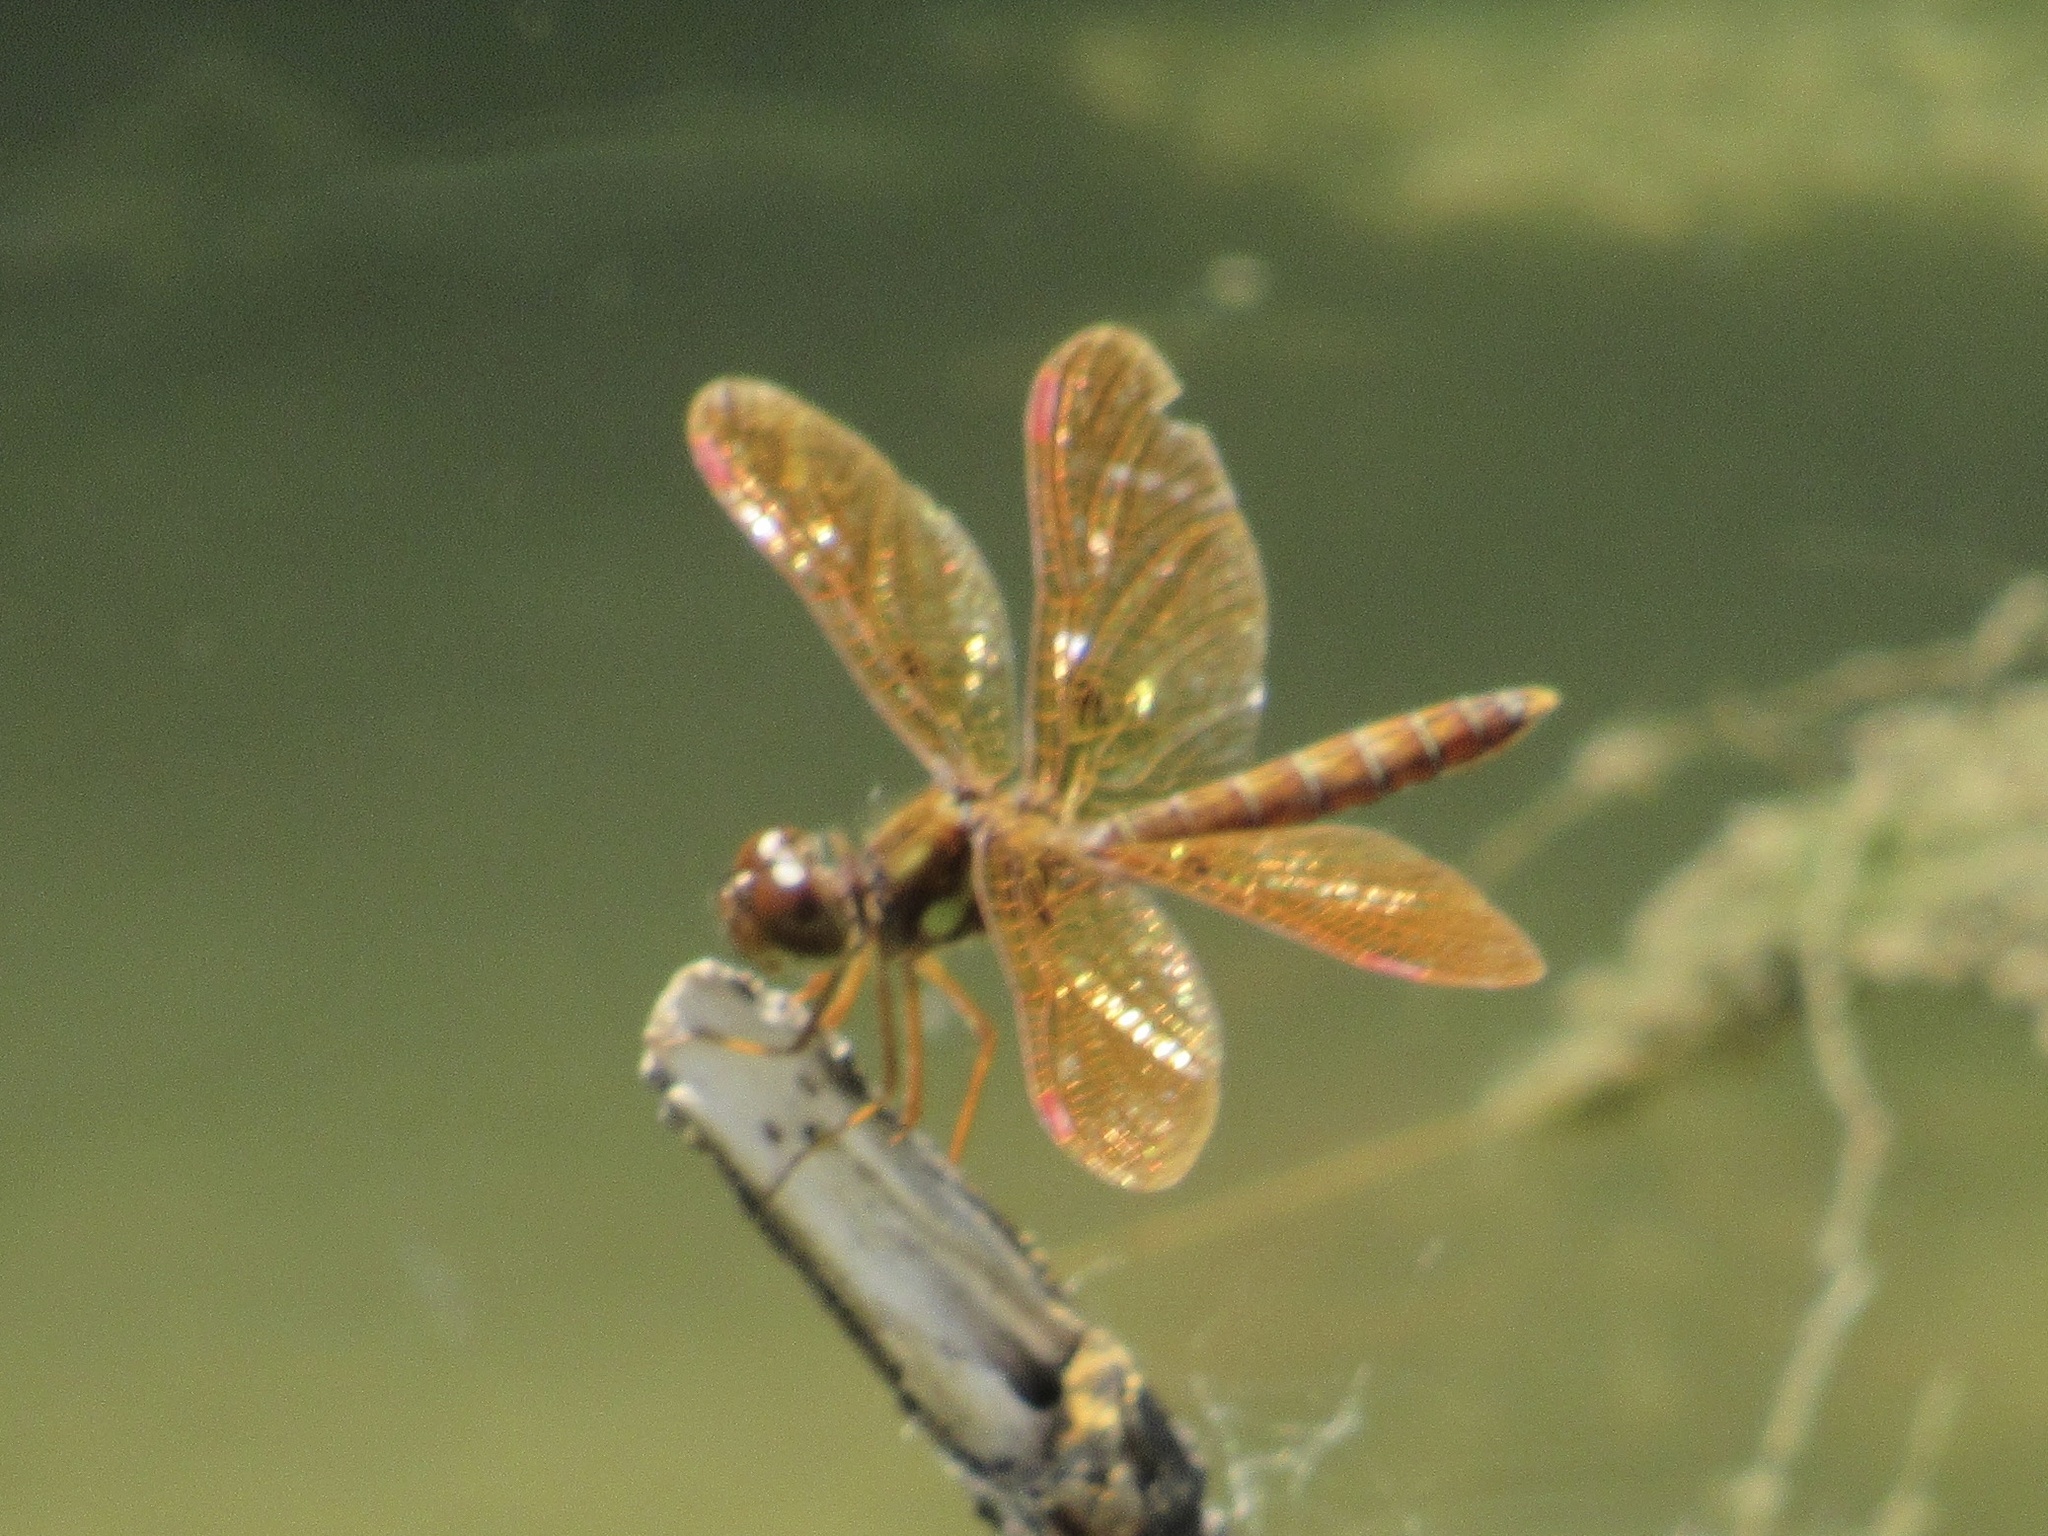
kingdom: Animalia
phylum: Arthropoda
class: Insecta
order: Odonata
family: Libellulidae
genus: Perithemis
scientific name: Perithemis tenera
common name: Eastern amberwing
